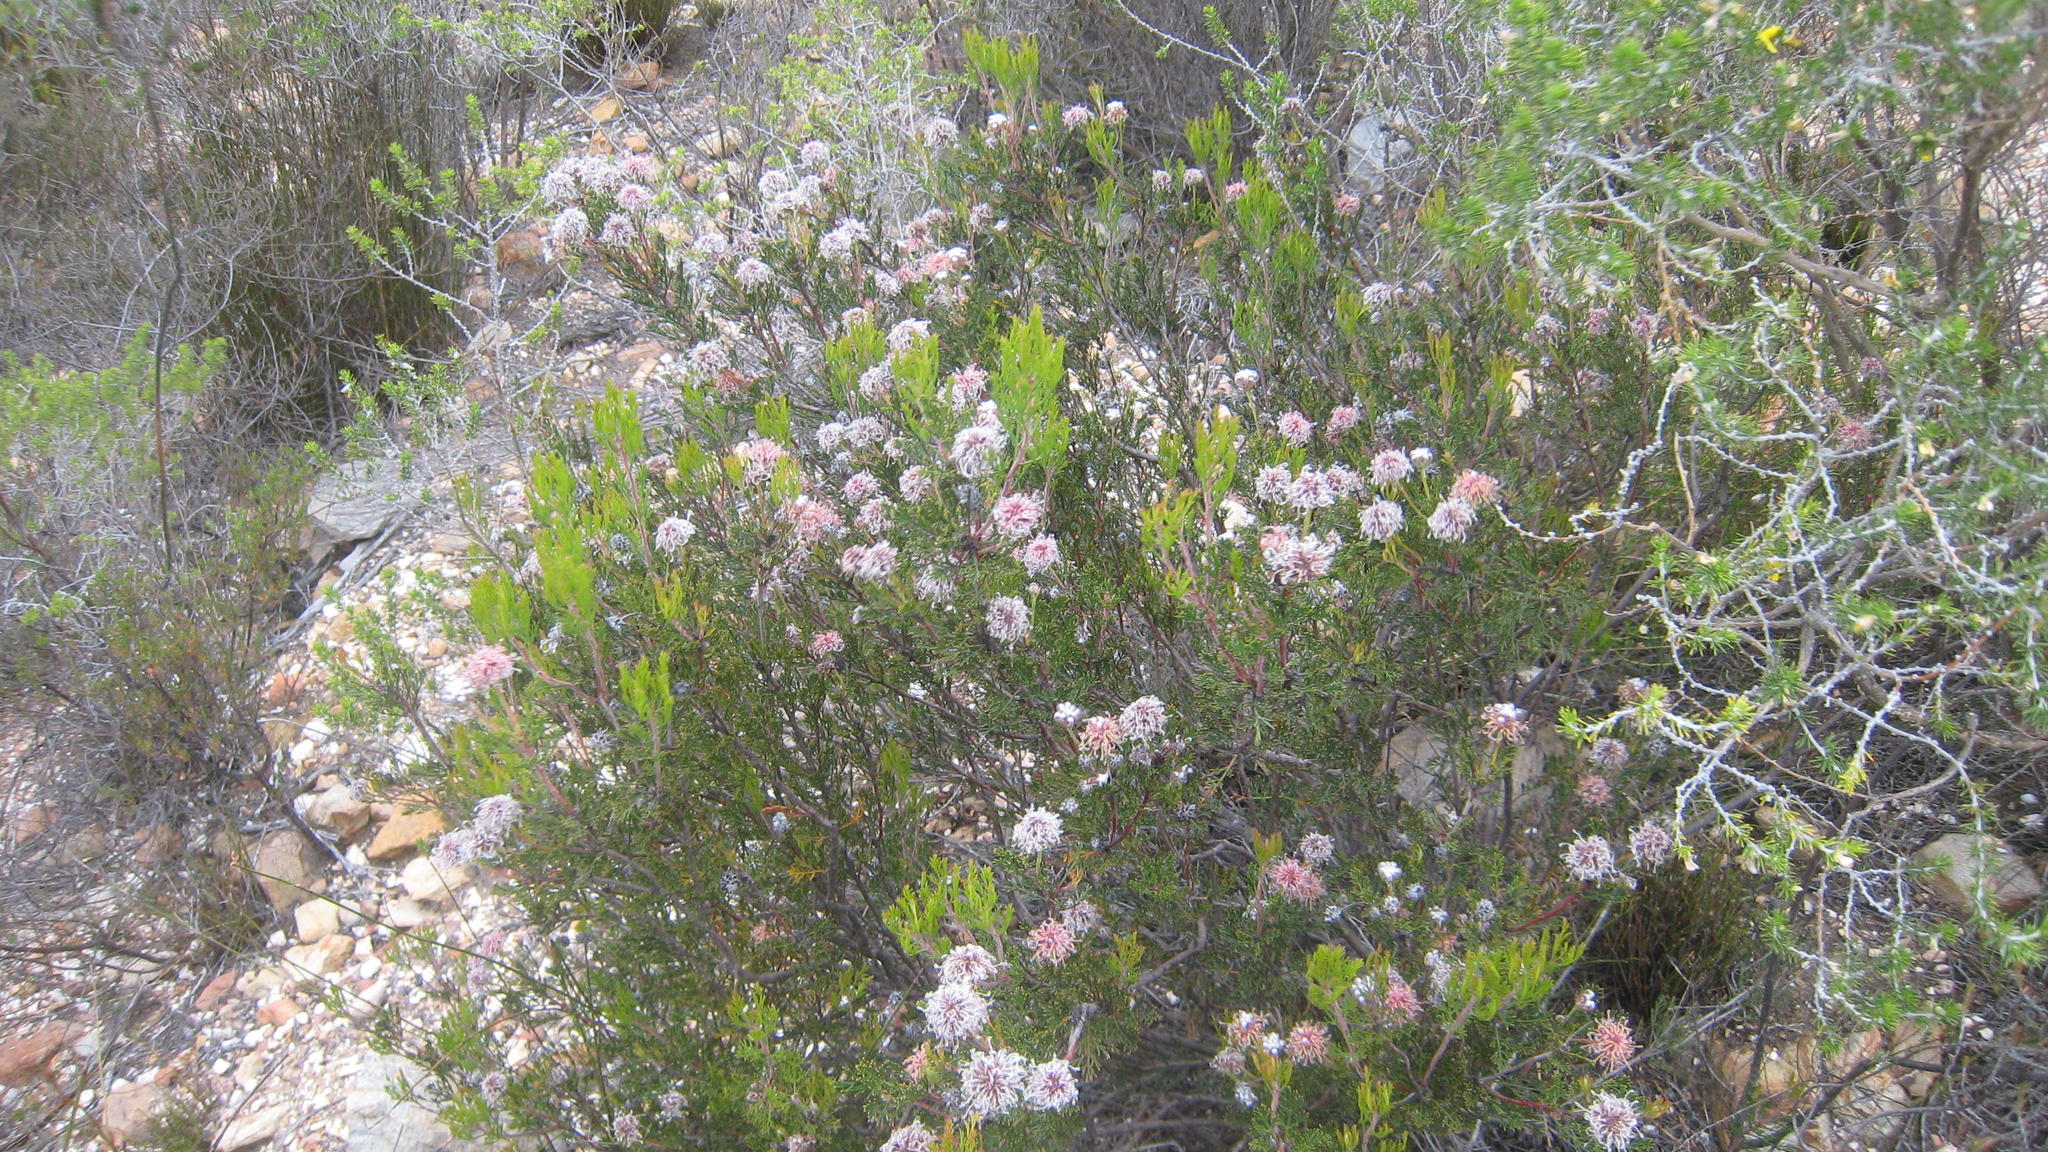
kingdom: Plantae
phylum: Tracheophyta
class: Magnoliopsida
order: Proteales
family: Proteaceae
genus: Serruria
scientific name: Serruria
